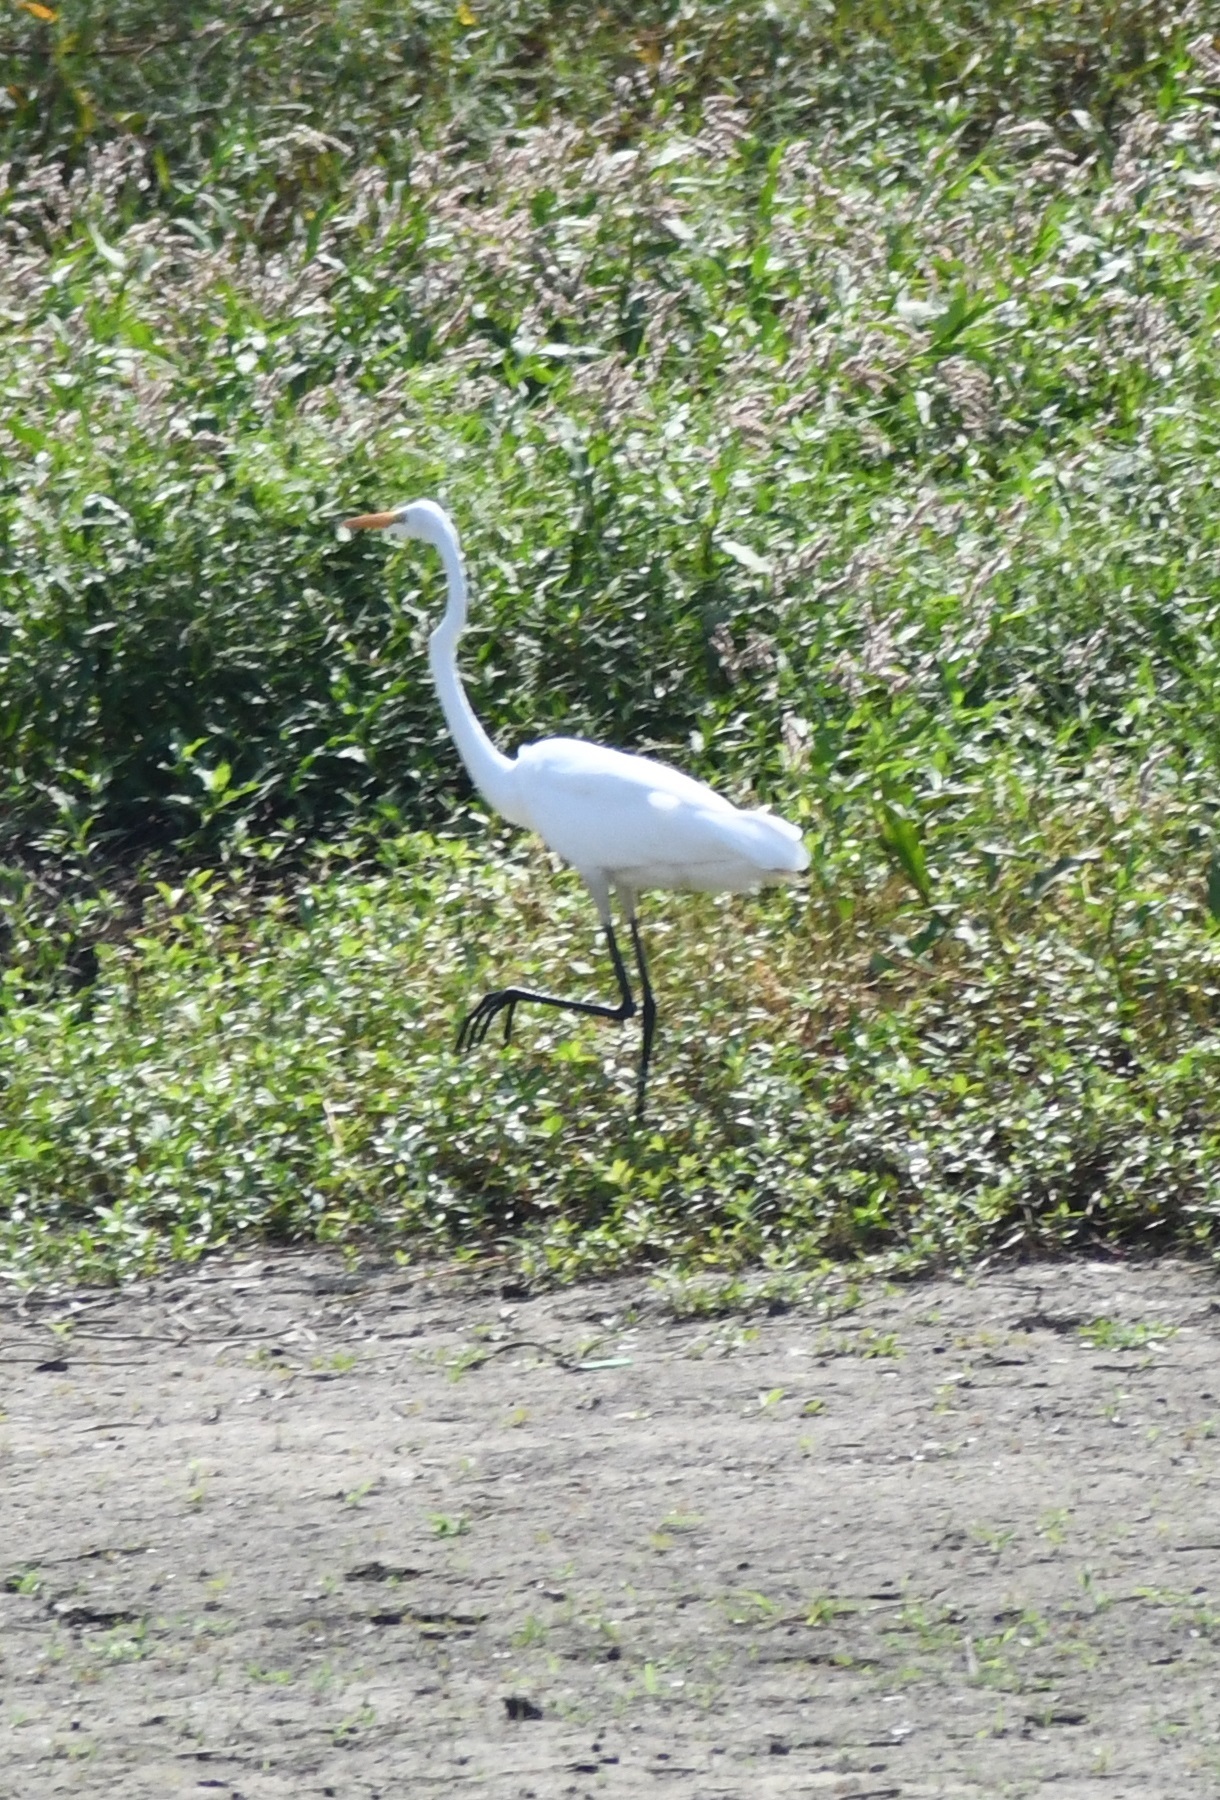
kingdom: Animalia
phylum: Chordata
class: Aves
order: Pelecaniformes
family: Ardeidae
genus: Ardea
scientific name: Ardea alba
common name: Great egret
